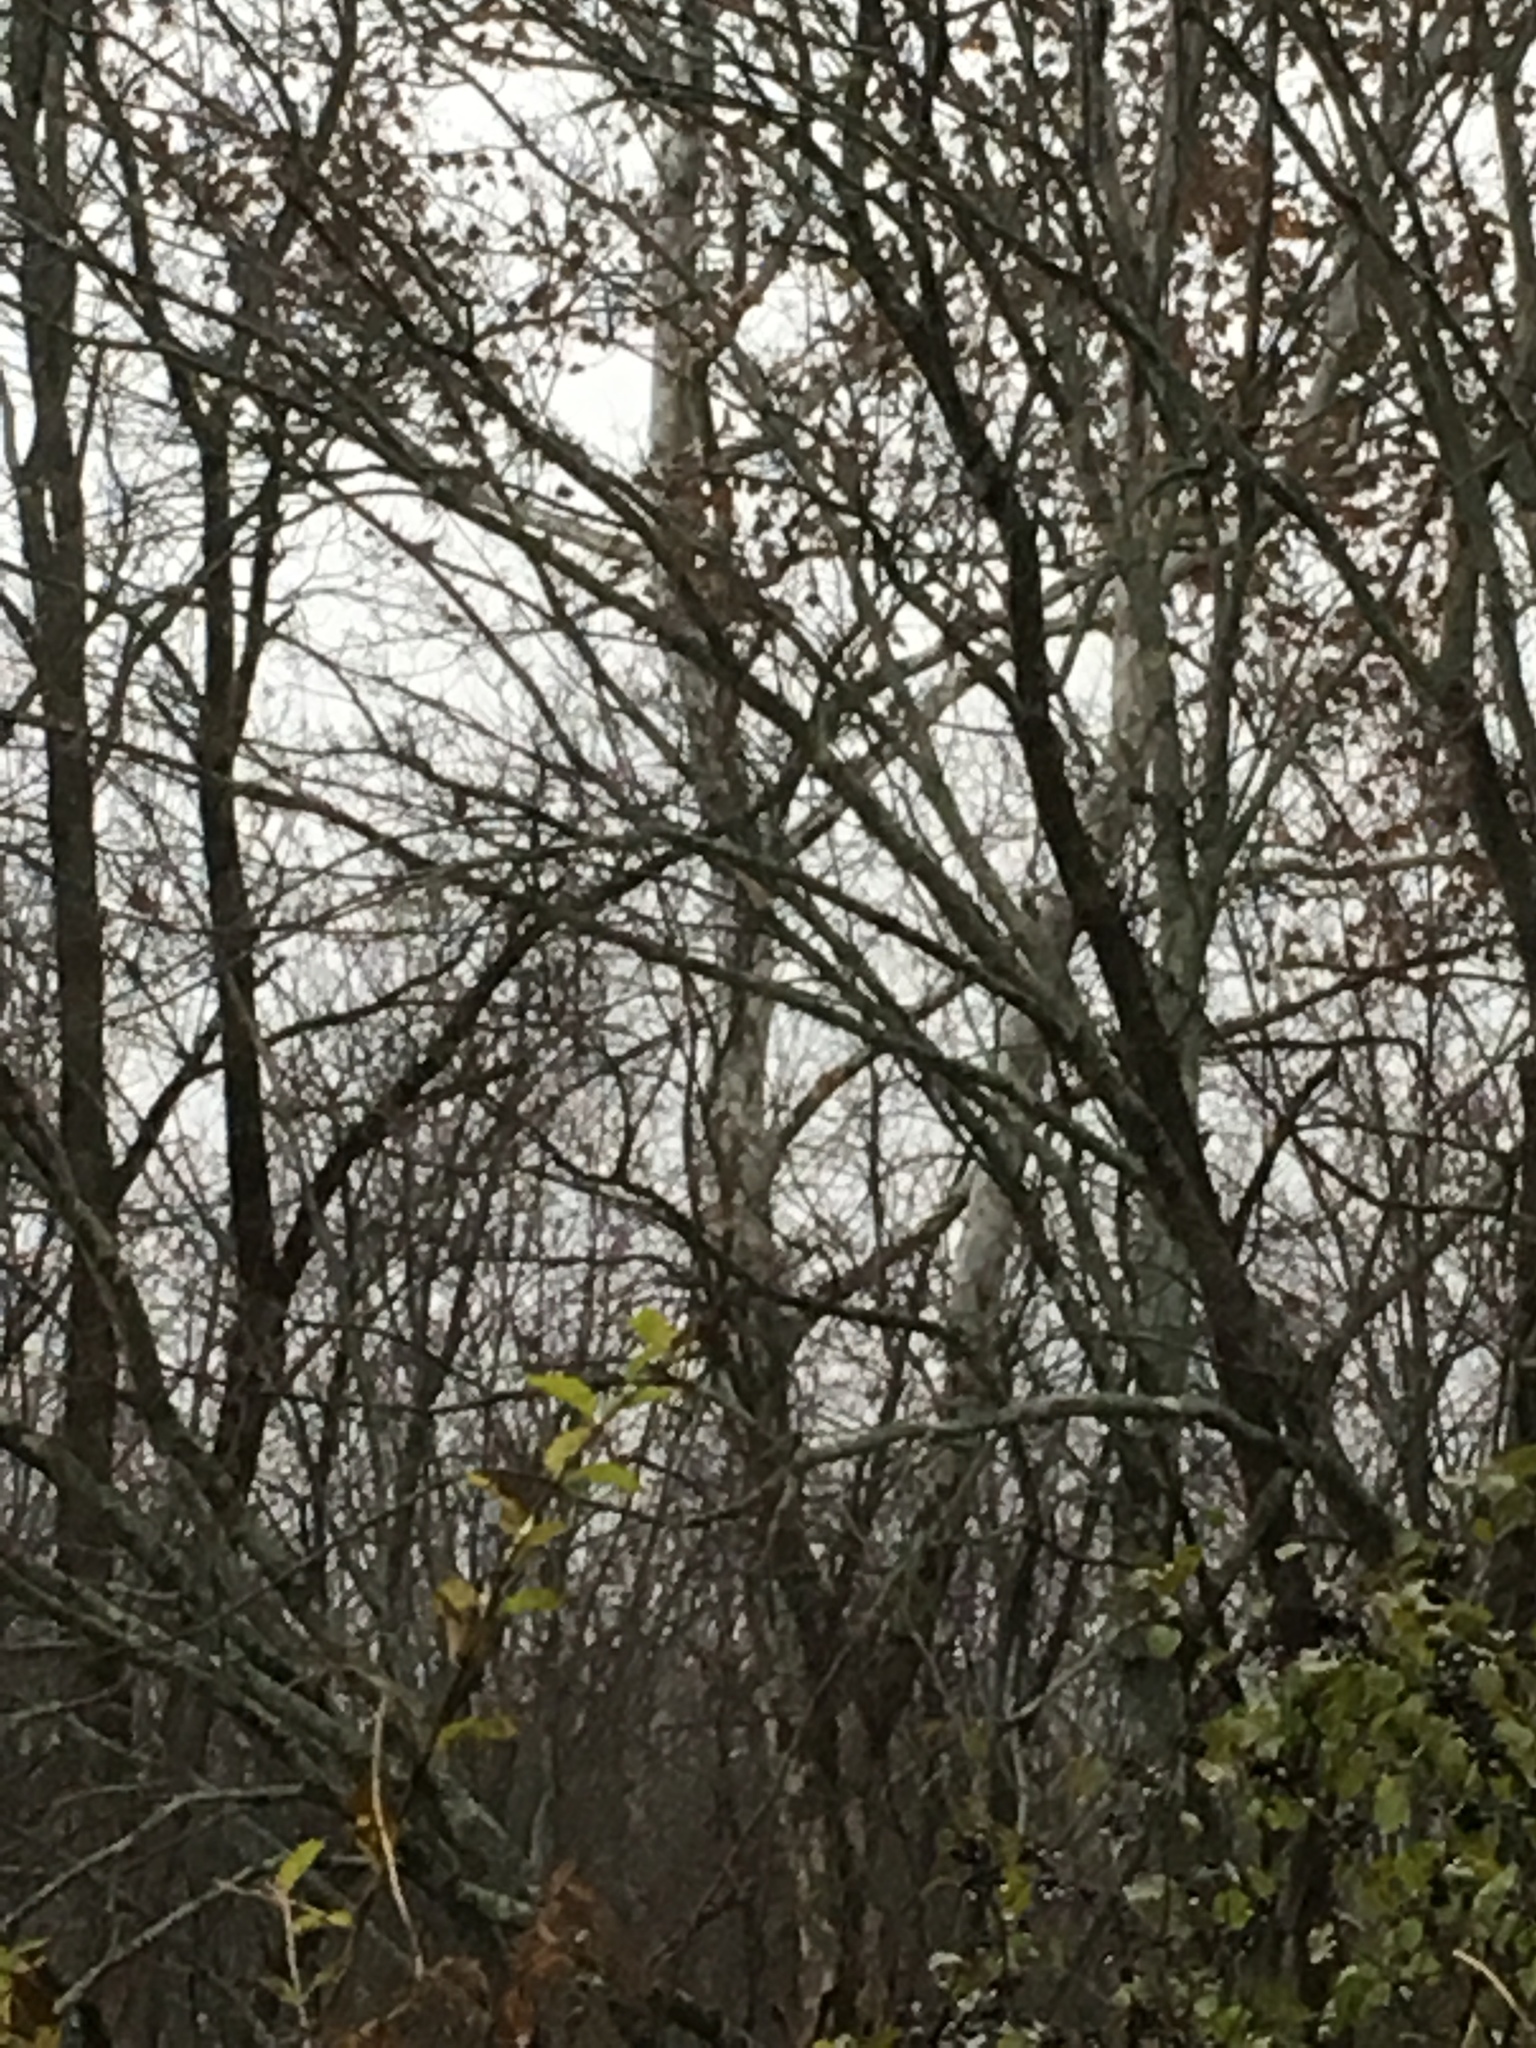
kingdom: Plantae
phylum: Tracheophyta
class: Magnoliopsida
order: Proteales
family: Platanaceae
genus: Platanus
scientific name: Platanus occidentalis
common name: American sycamore
